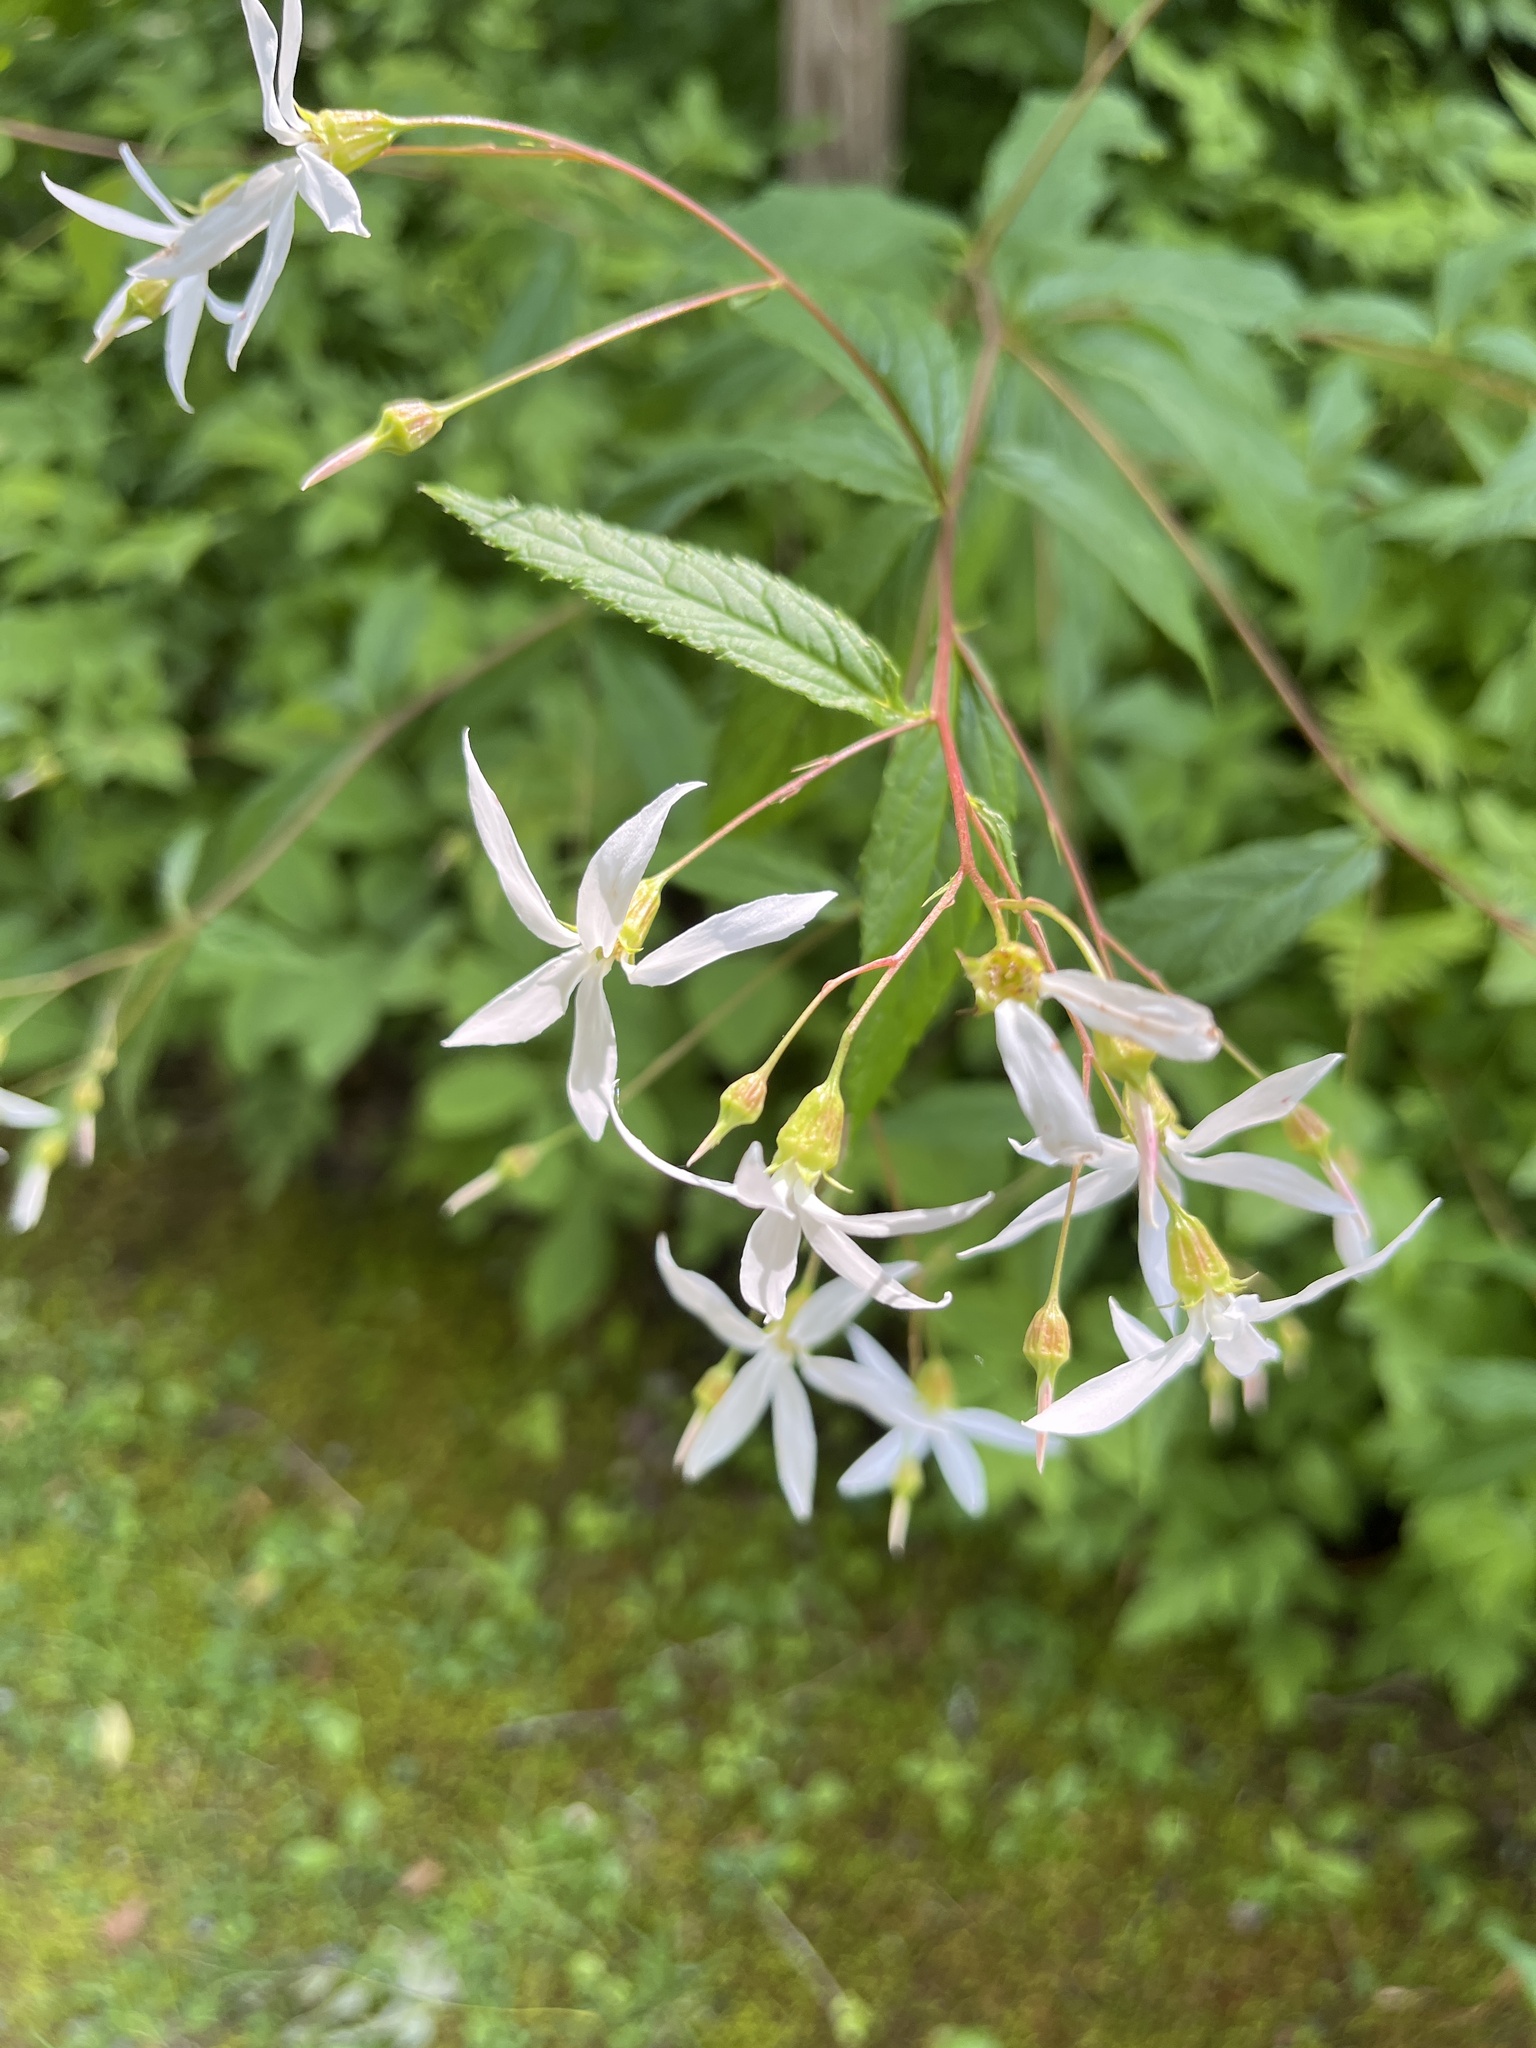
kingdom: Plantae
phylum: Tracheophyta
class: Magnoliopsida
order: Rosales
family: Rosaceae
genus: Gillenia
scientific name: Gillenia trifoliata
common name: Bowman's-root
